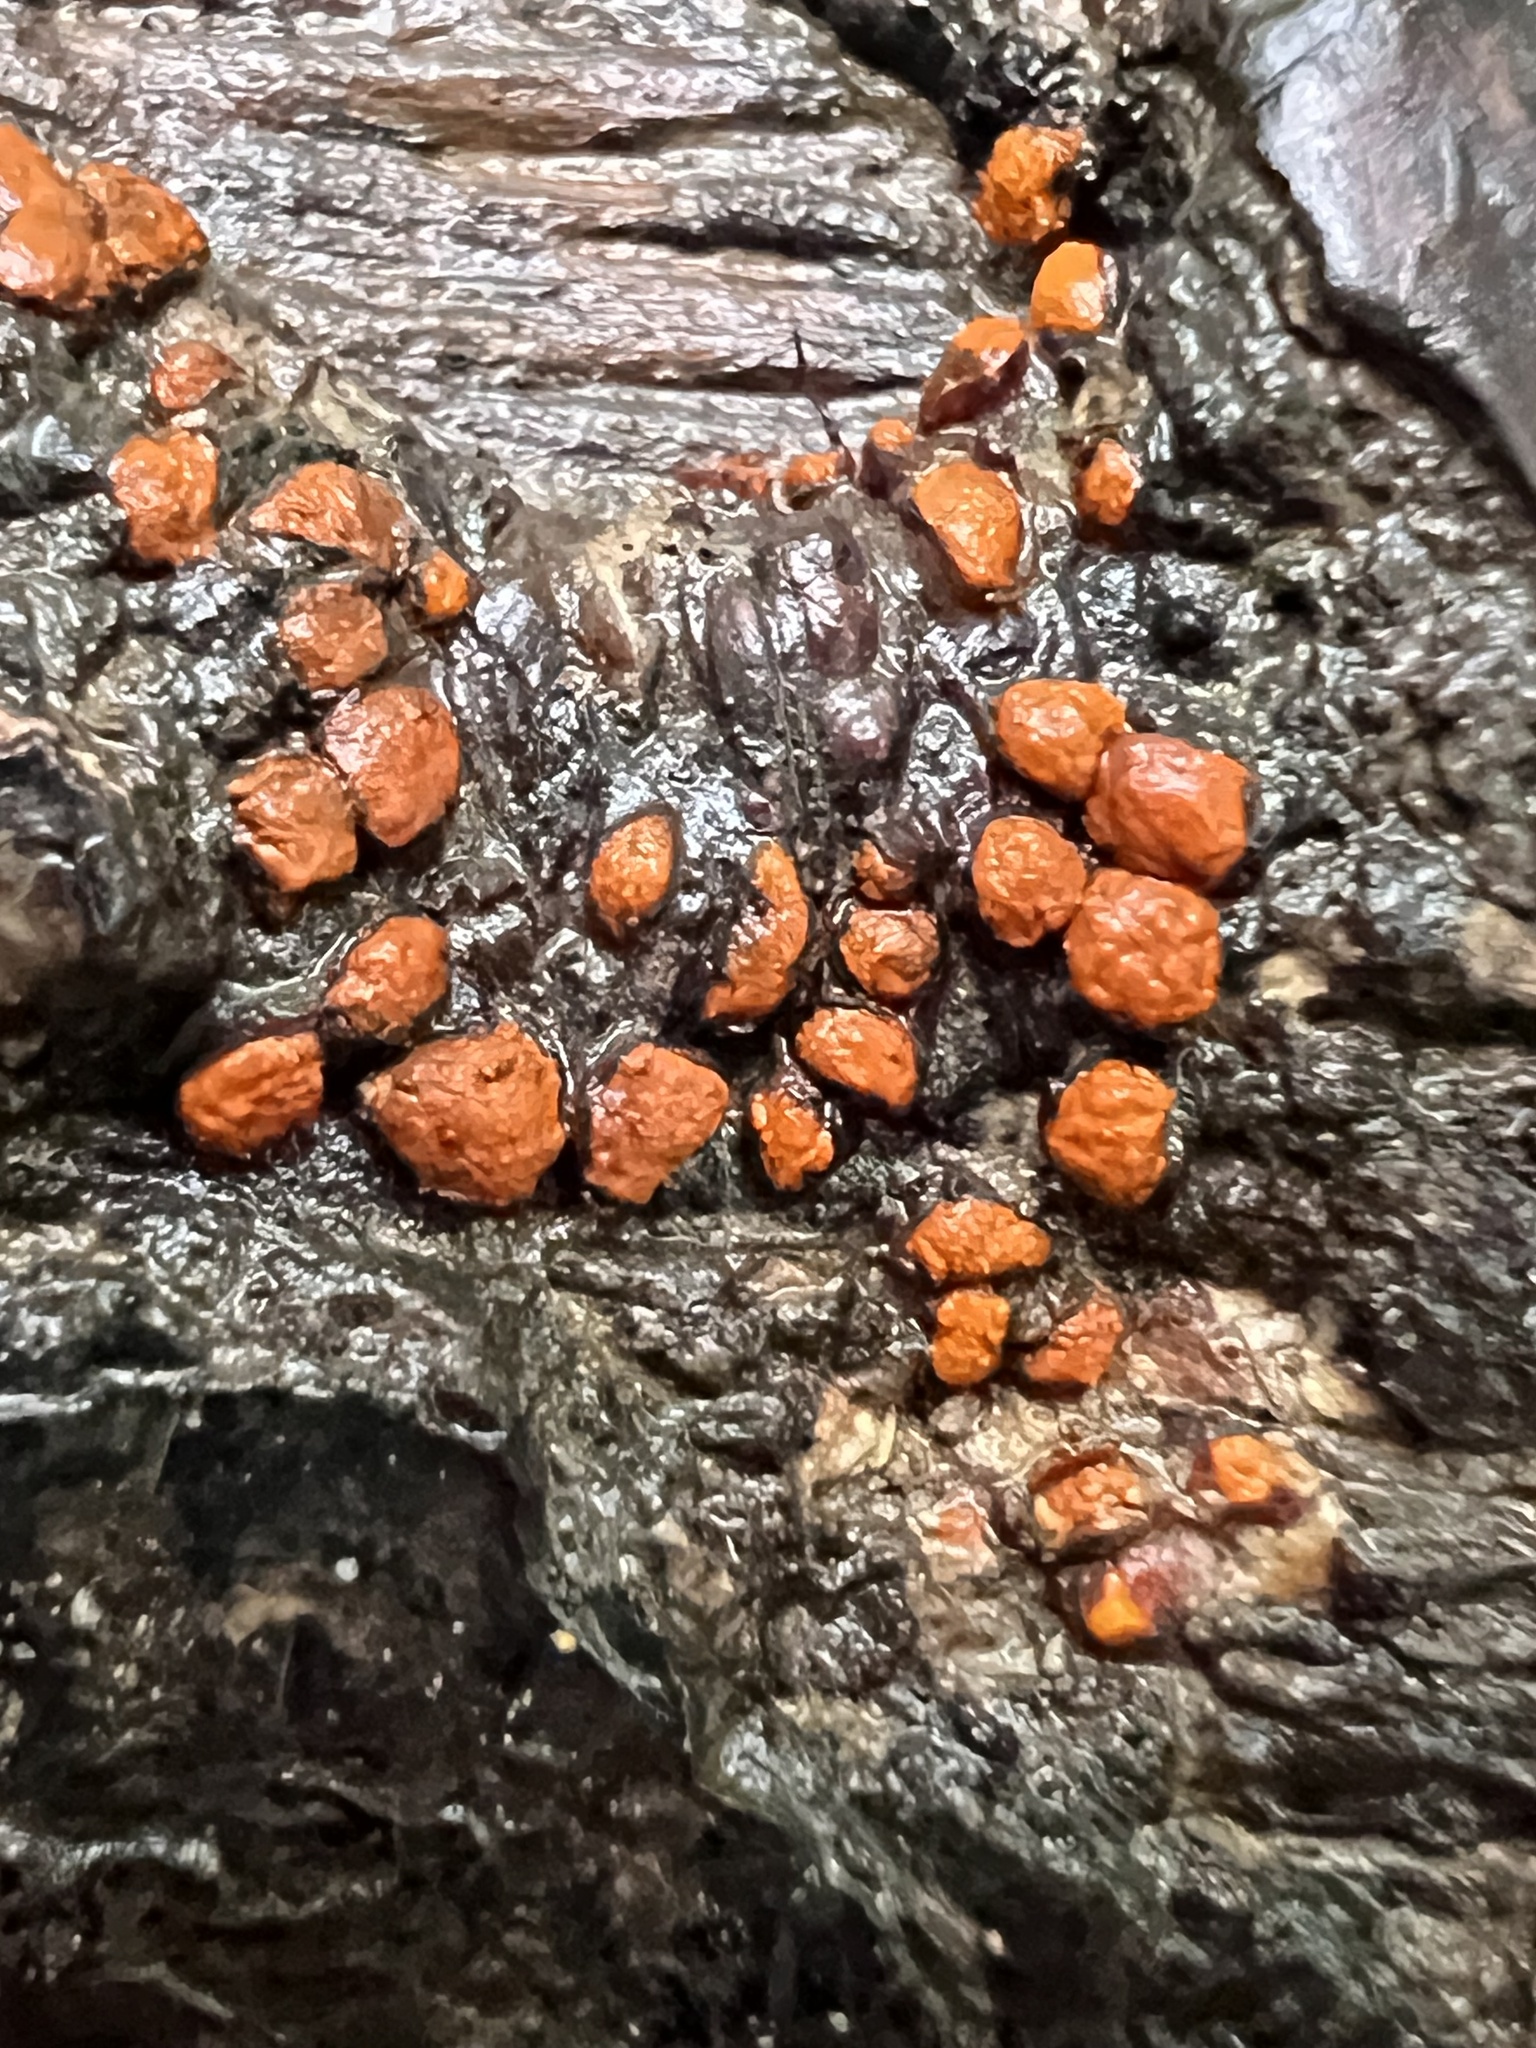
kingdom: Fungi
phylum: Ascomycota
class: Sordariomycetes
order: Diaporthales
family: Cryphonectriaceae
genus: Amphilogia
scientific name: Amphilogia gyrosa
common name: Orange hobnail canker
